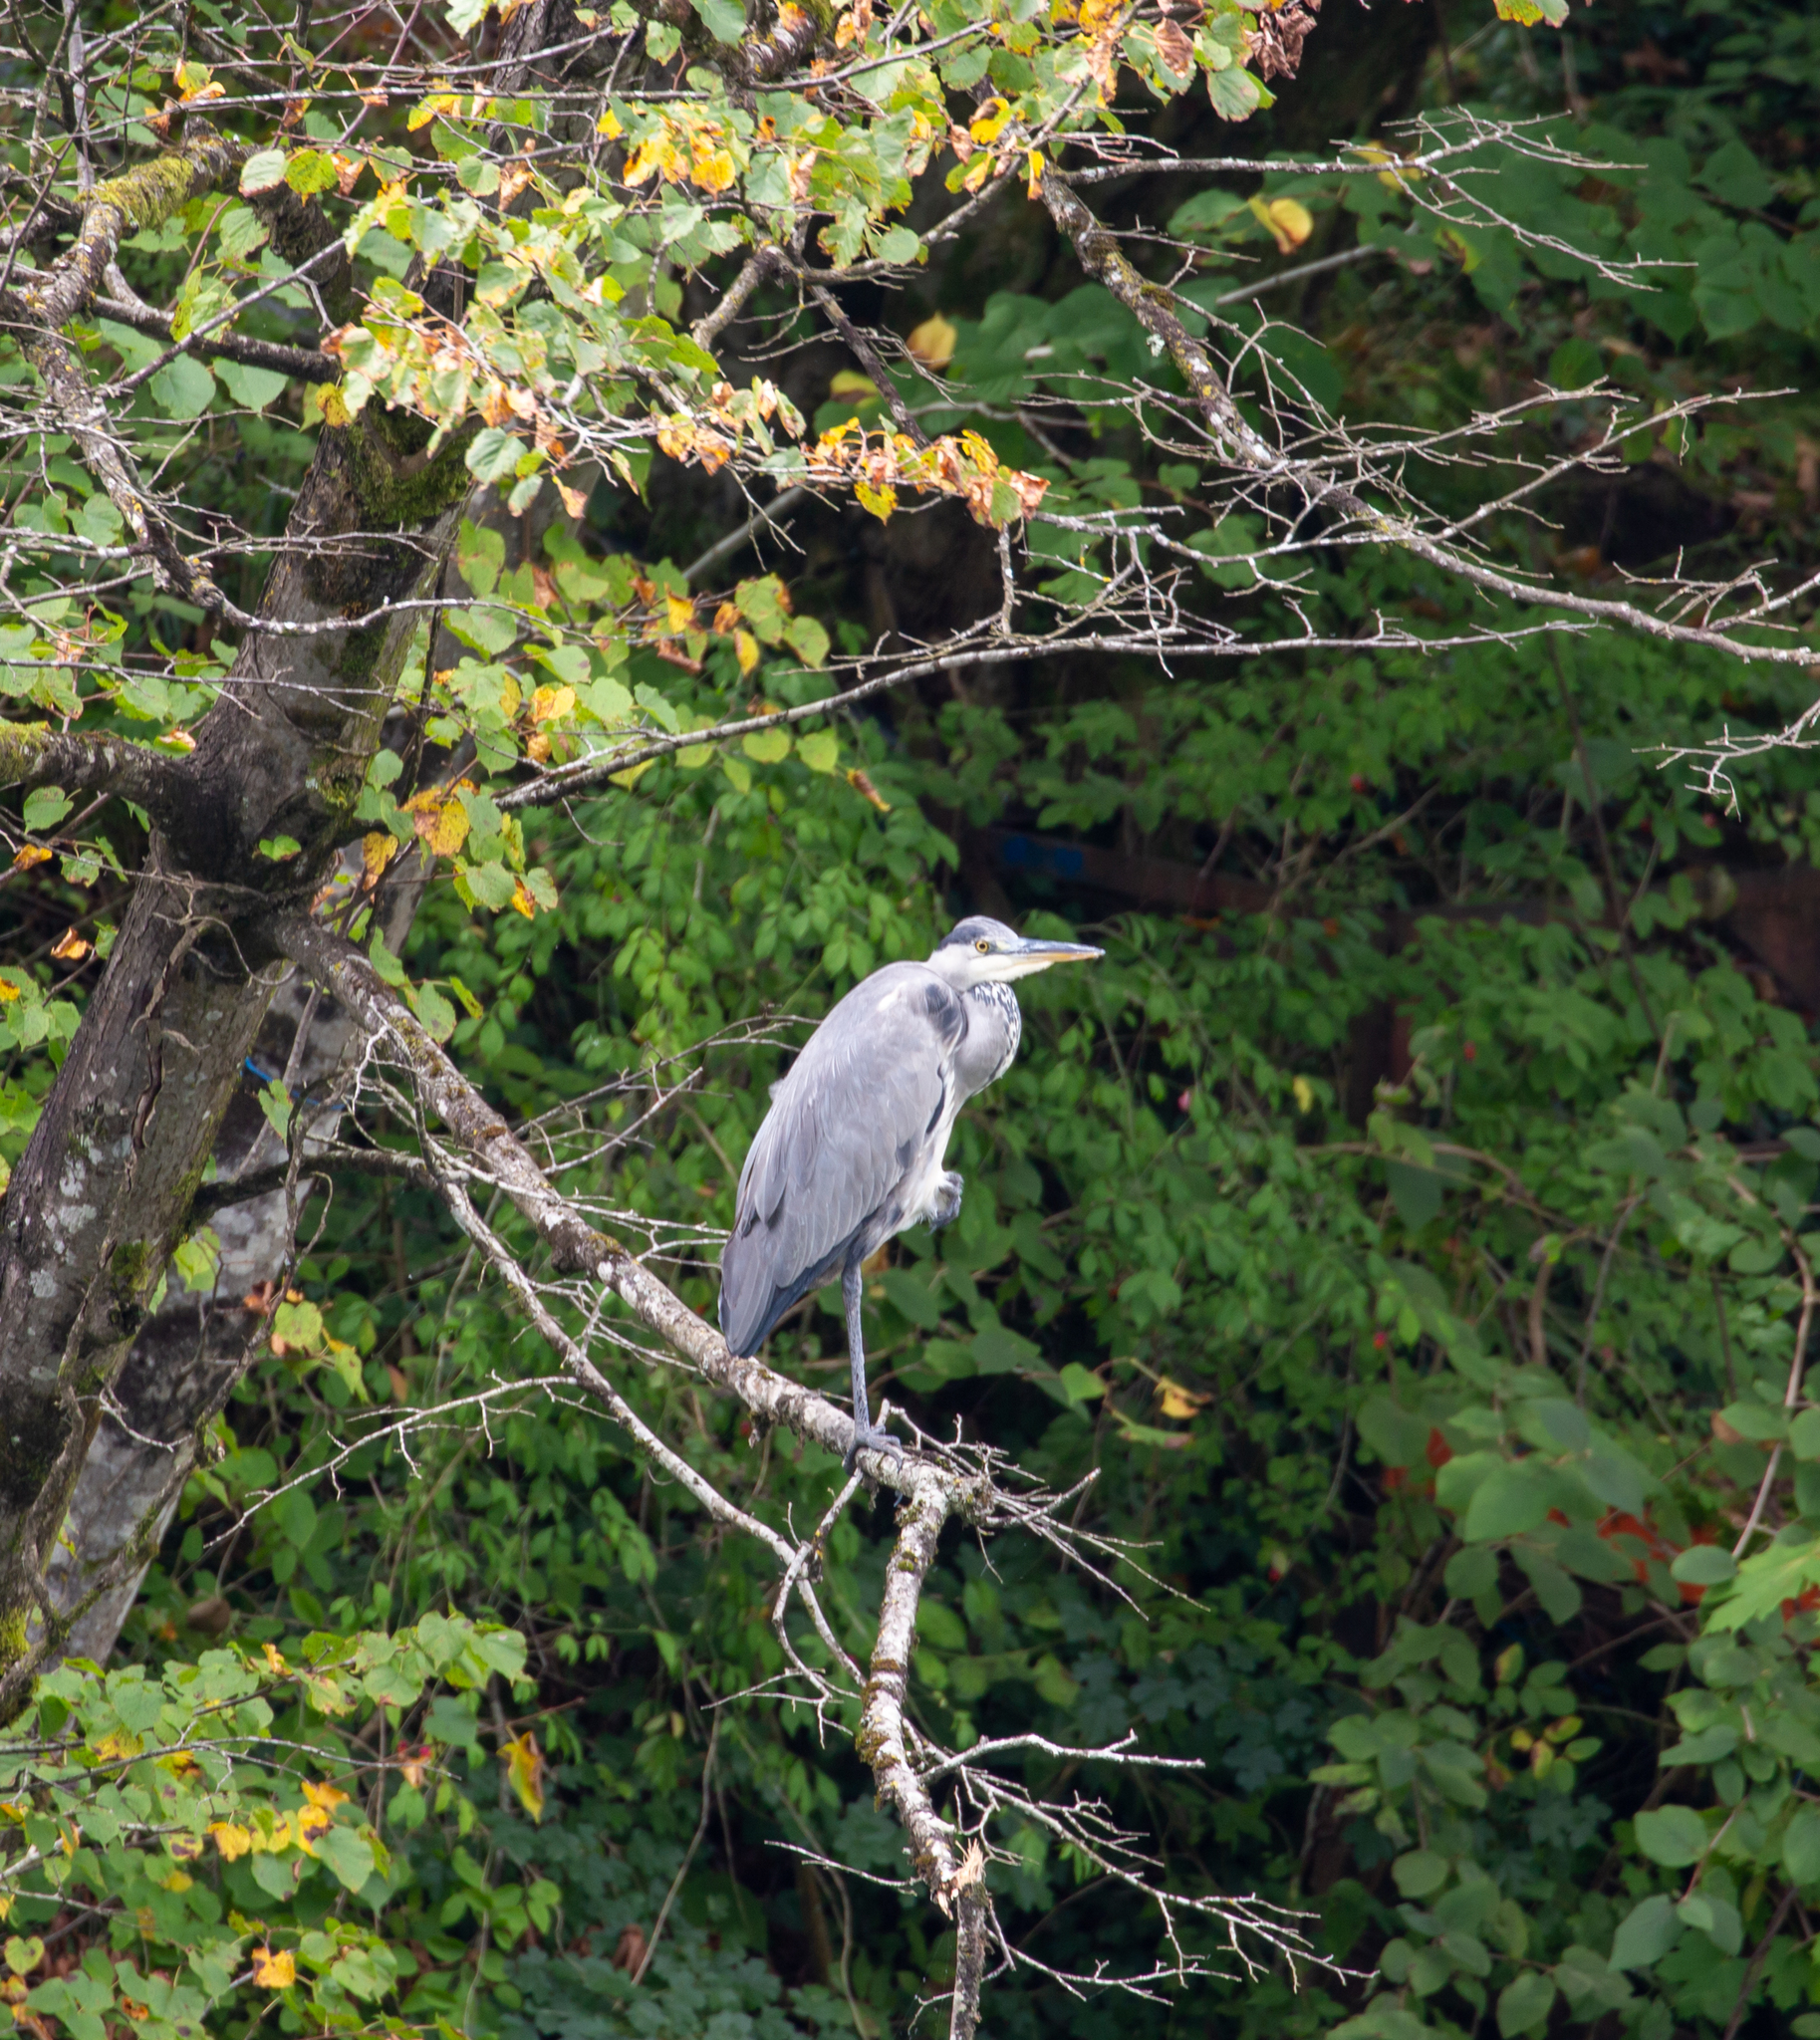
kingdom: Animalia
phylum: Chordata
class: Aves
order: Pelecaniformes
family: Ardeidae
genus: Ardea
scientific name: Ardea cinerea
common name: Grey heron
